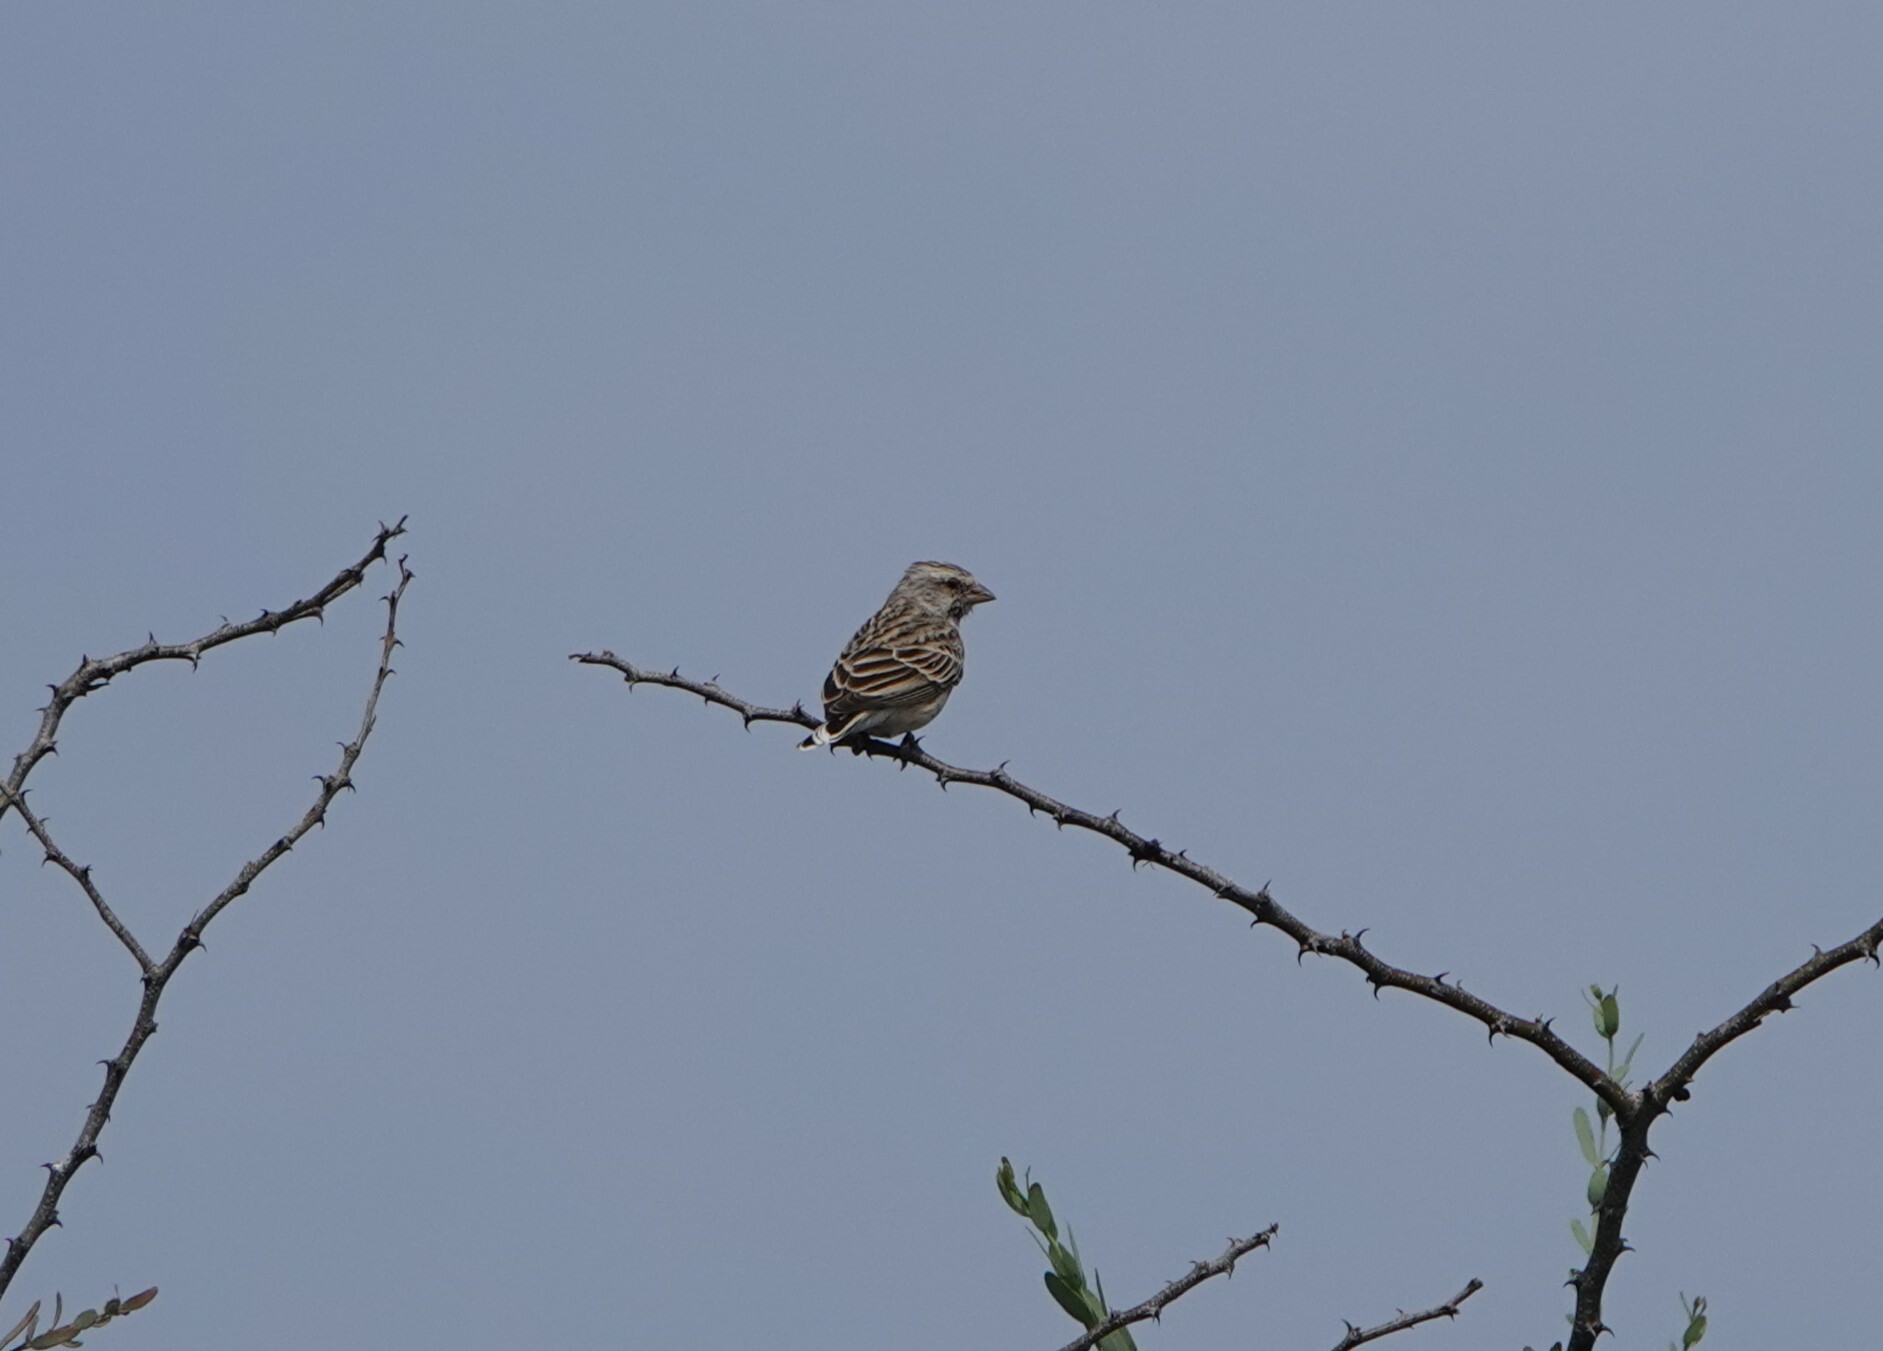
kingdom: Animalia
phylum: Chordata
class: Aves
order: Passeriformes
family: Fringillidae
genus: Crithagra
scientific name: Crithagra atrogularis
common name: Black-throated canary
